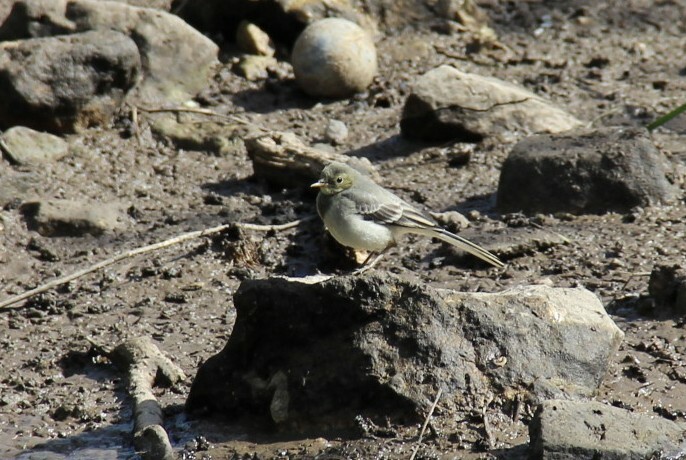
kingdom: Animalia
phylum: Chordata
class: Aves
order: Passeriformes
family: Motacillidae
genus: Motacilla
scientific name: Motacilla alba
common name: White wagtail
